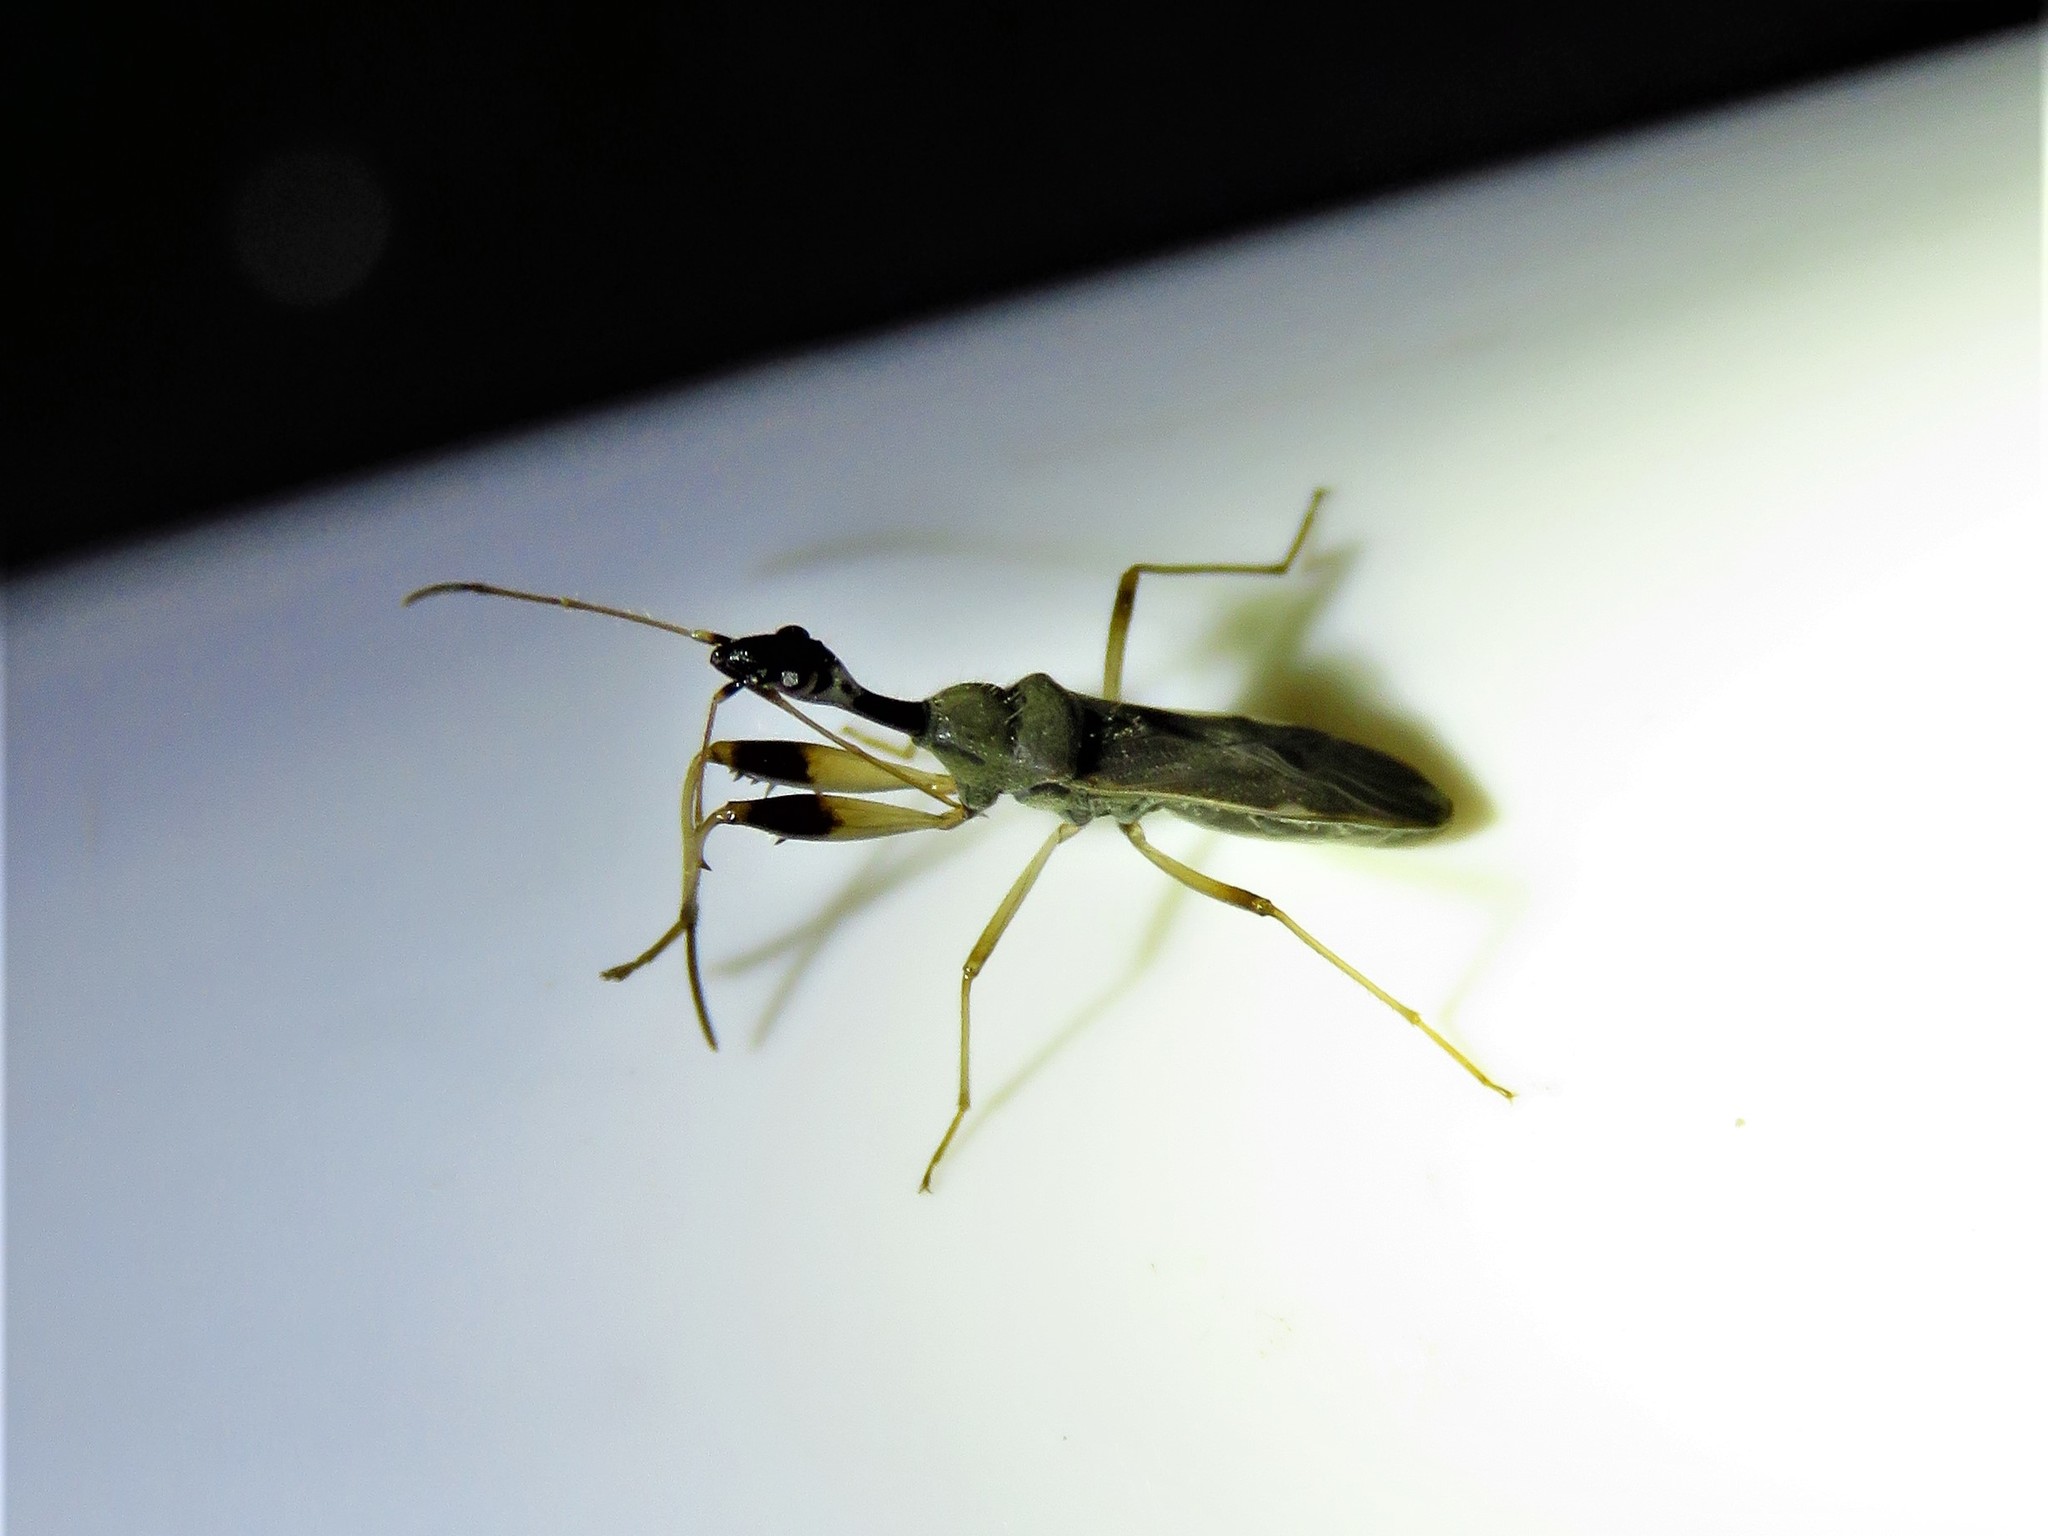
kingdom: Animalia
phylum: Arthropoda
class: Insecta
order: Hemiptera
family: Rhyparochromidae
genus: Myodocha
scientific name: Myodocha serripes
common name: Long-necked seed bug
